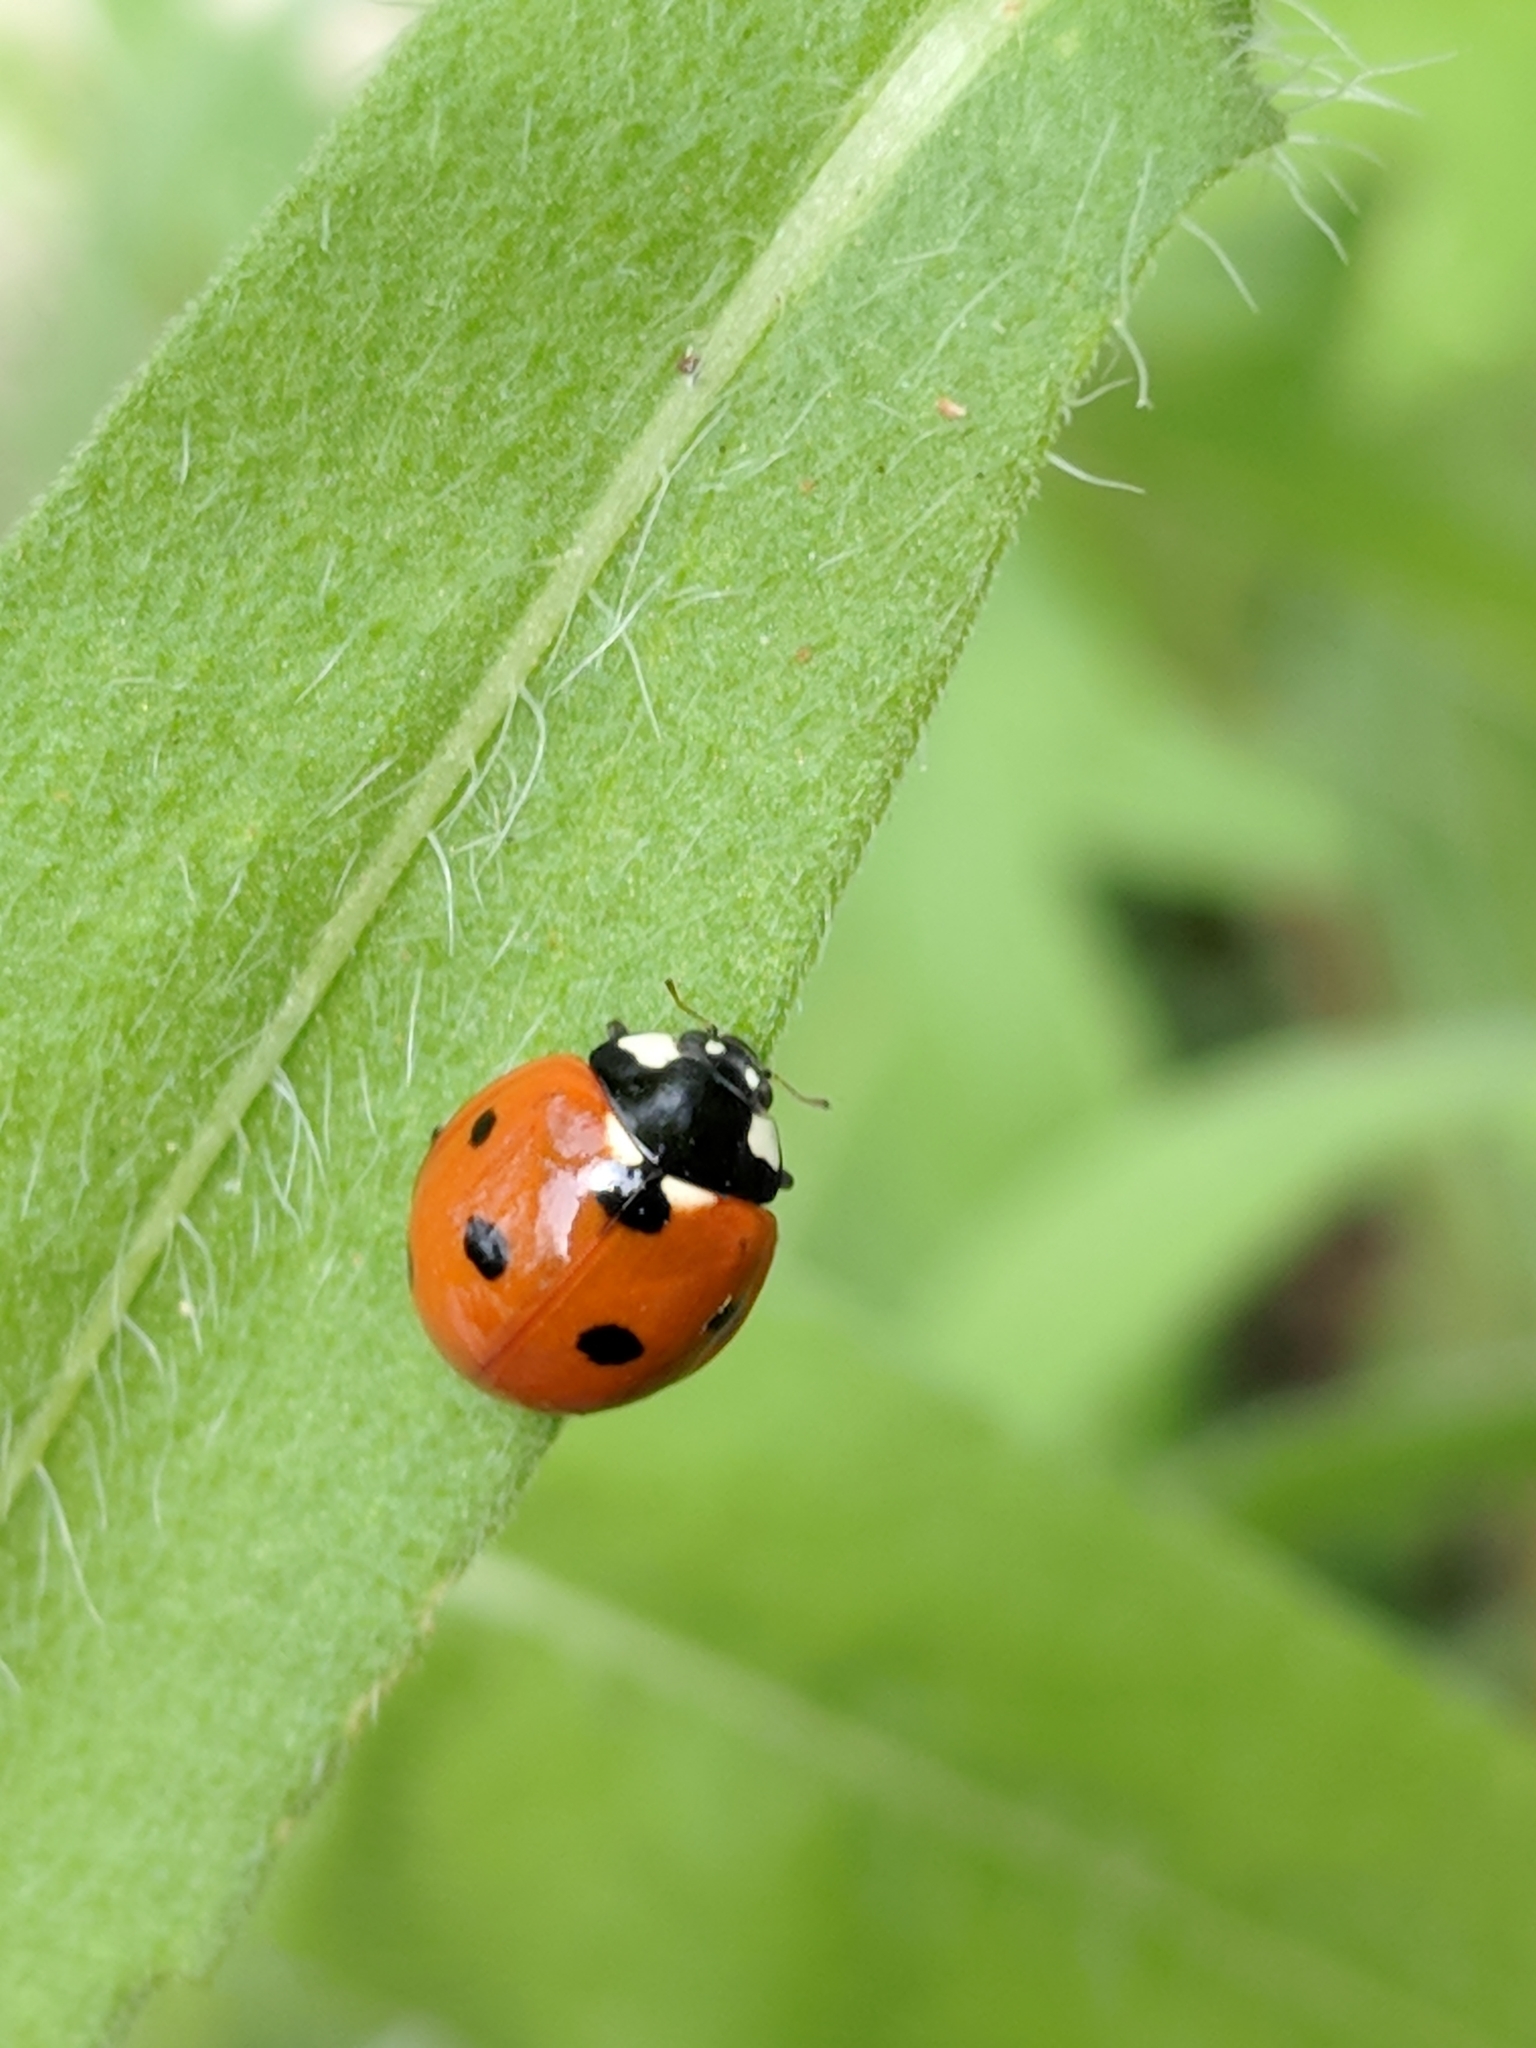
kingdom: Animalia
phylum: Arthropoda
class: Insecta
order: Coleoptera
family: Coccinellidae
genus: Coccinella
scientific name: Coccinella septempunctata
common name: Sevenspotted lady beetle
